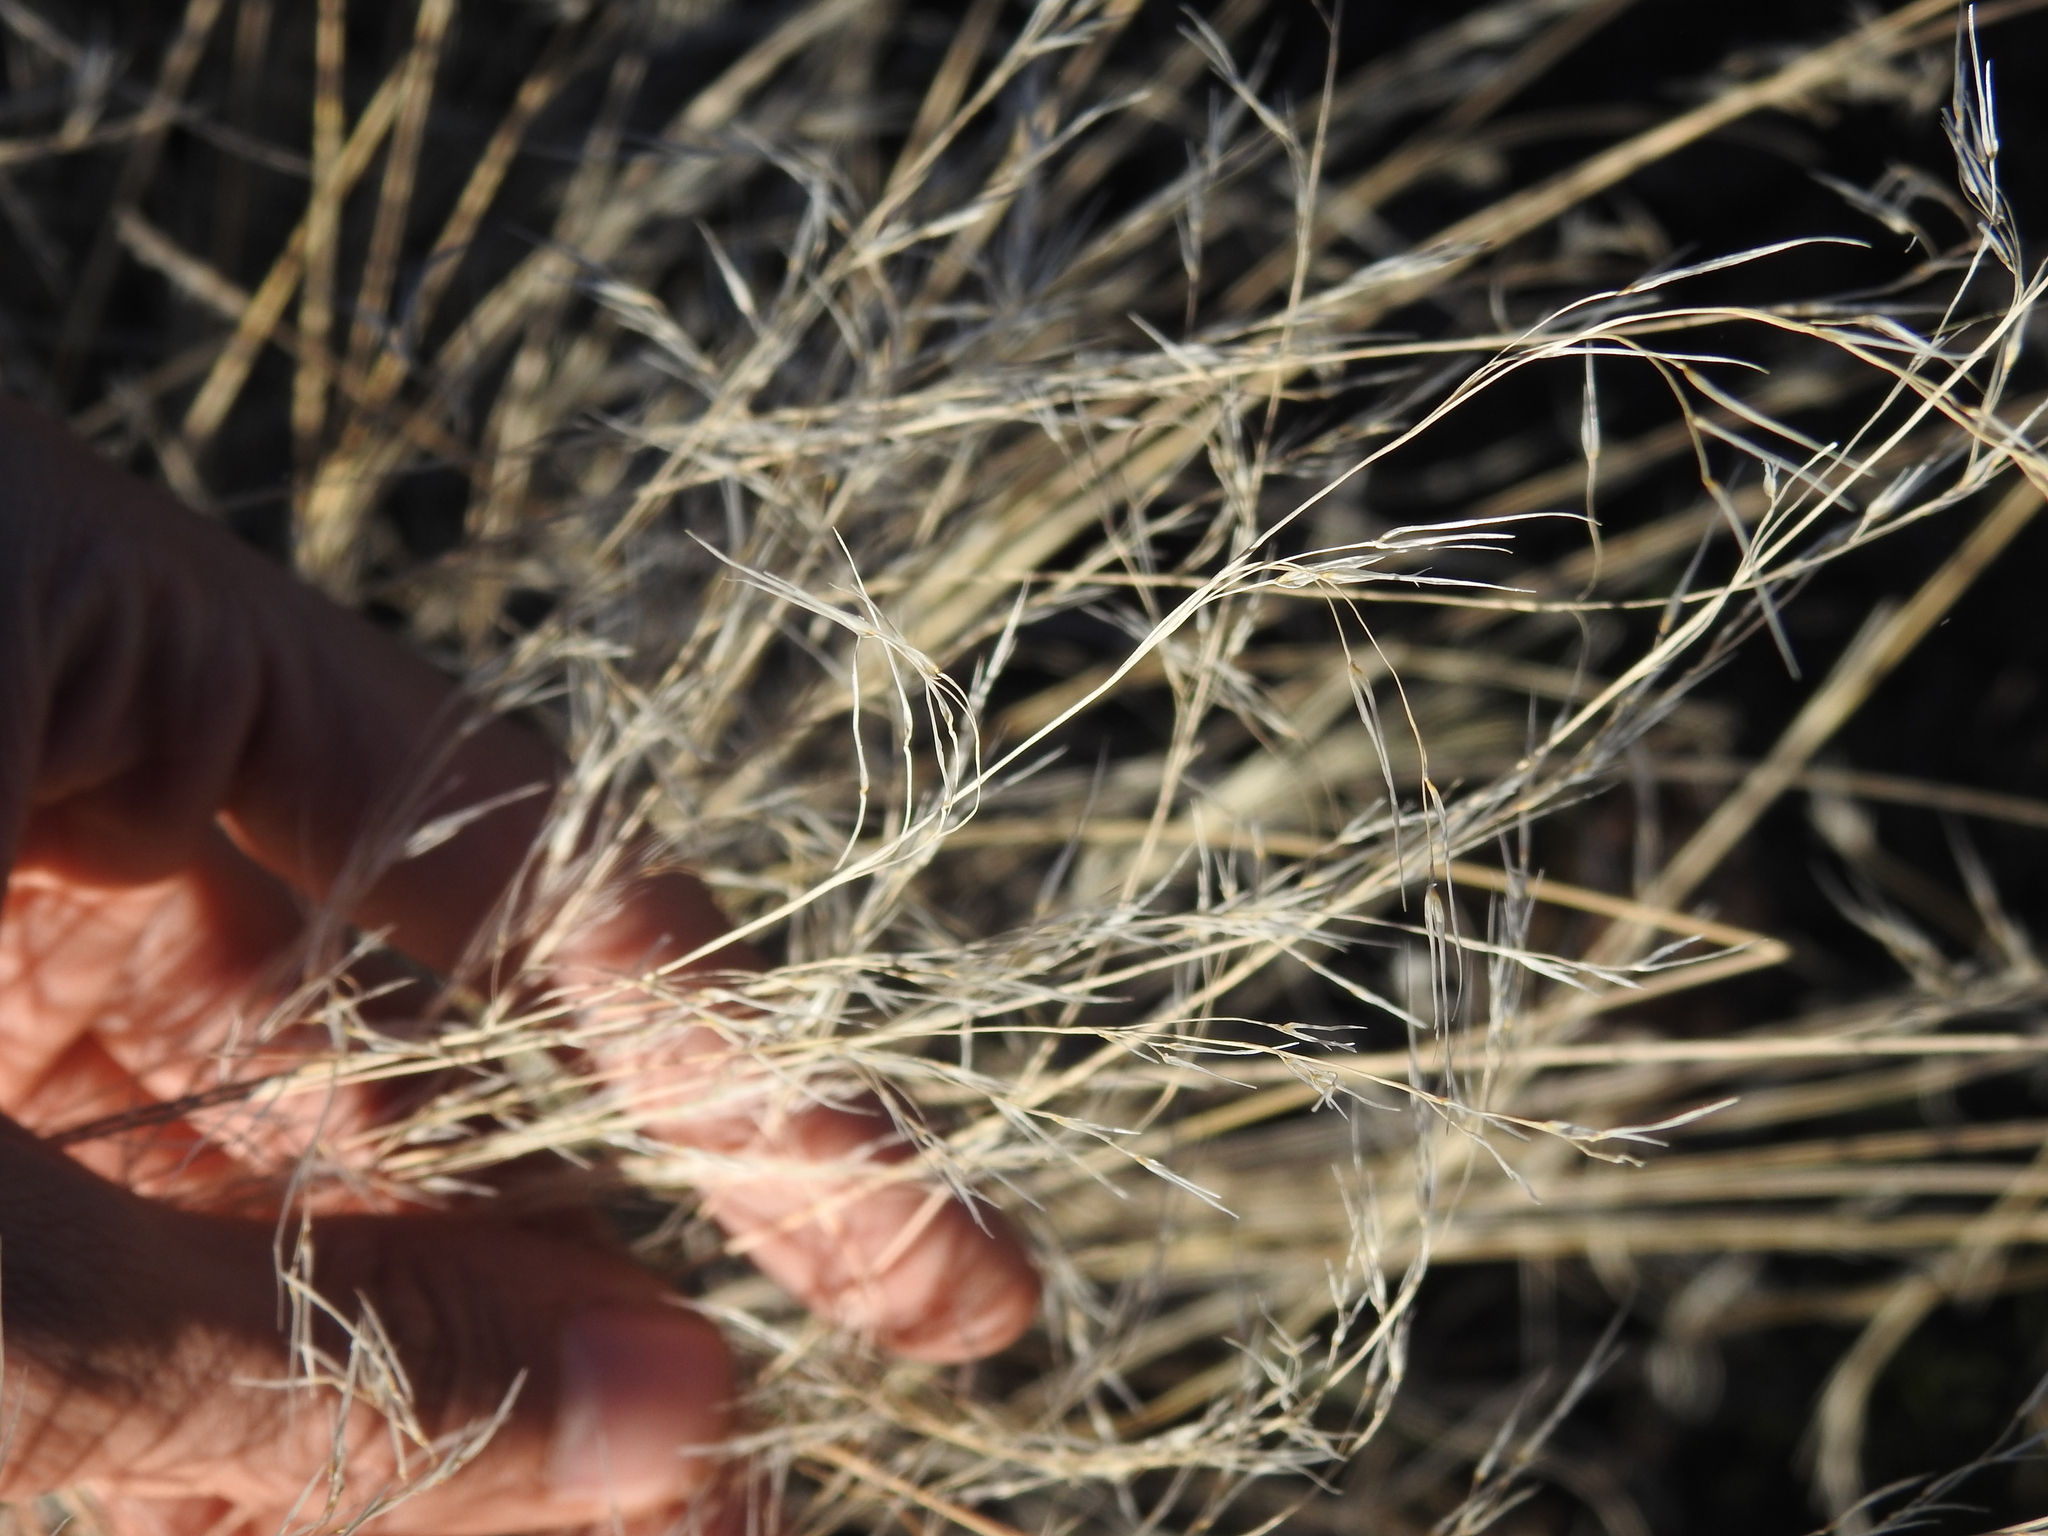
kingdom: Plantae
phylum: Tracheophyta
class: Liliopsida
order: Poales
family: Poaceae
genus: Aristida
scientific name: Aristida purpurea
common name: Purple threeawn
